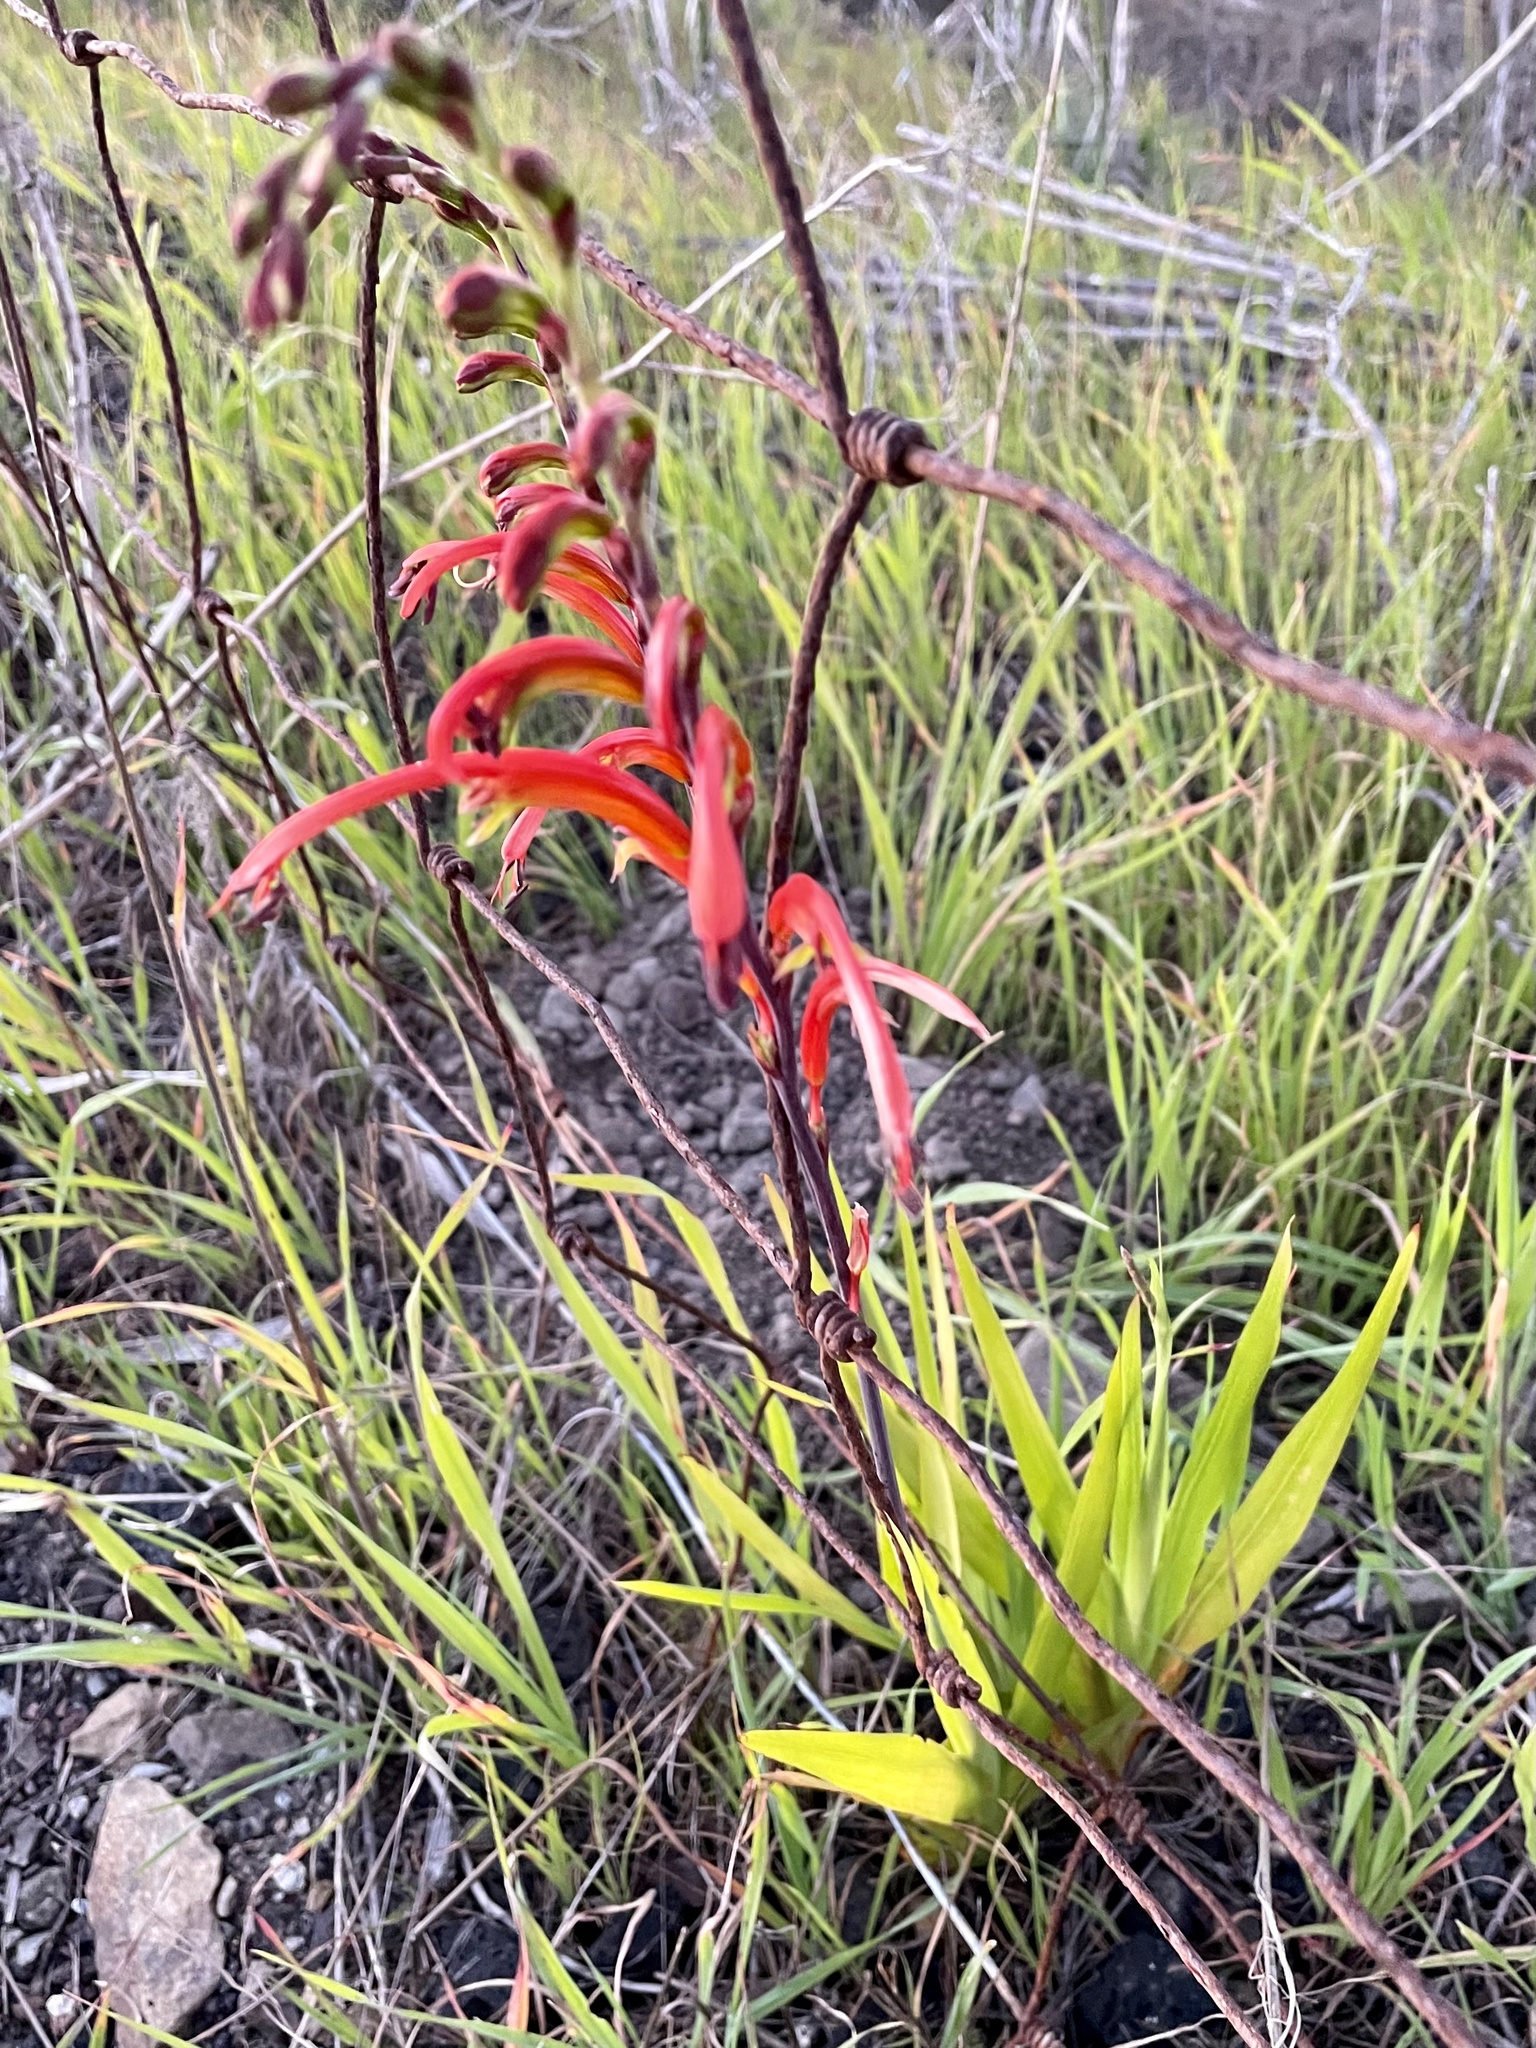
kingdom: Plantae
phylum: Tracheophyta
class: Liliopsida
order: Asparagales
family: Iridaceae
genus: Chasmanthe
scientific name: Chasmanthe bicolor
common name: Bicolor cobra lily
